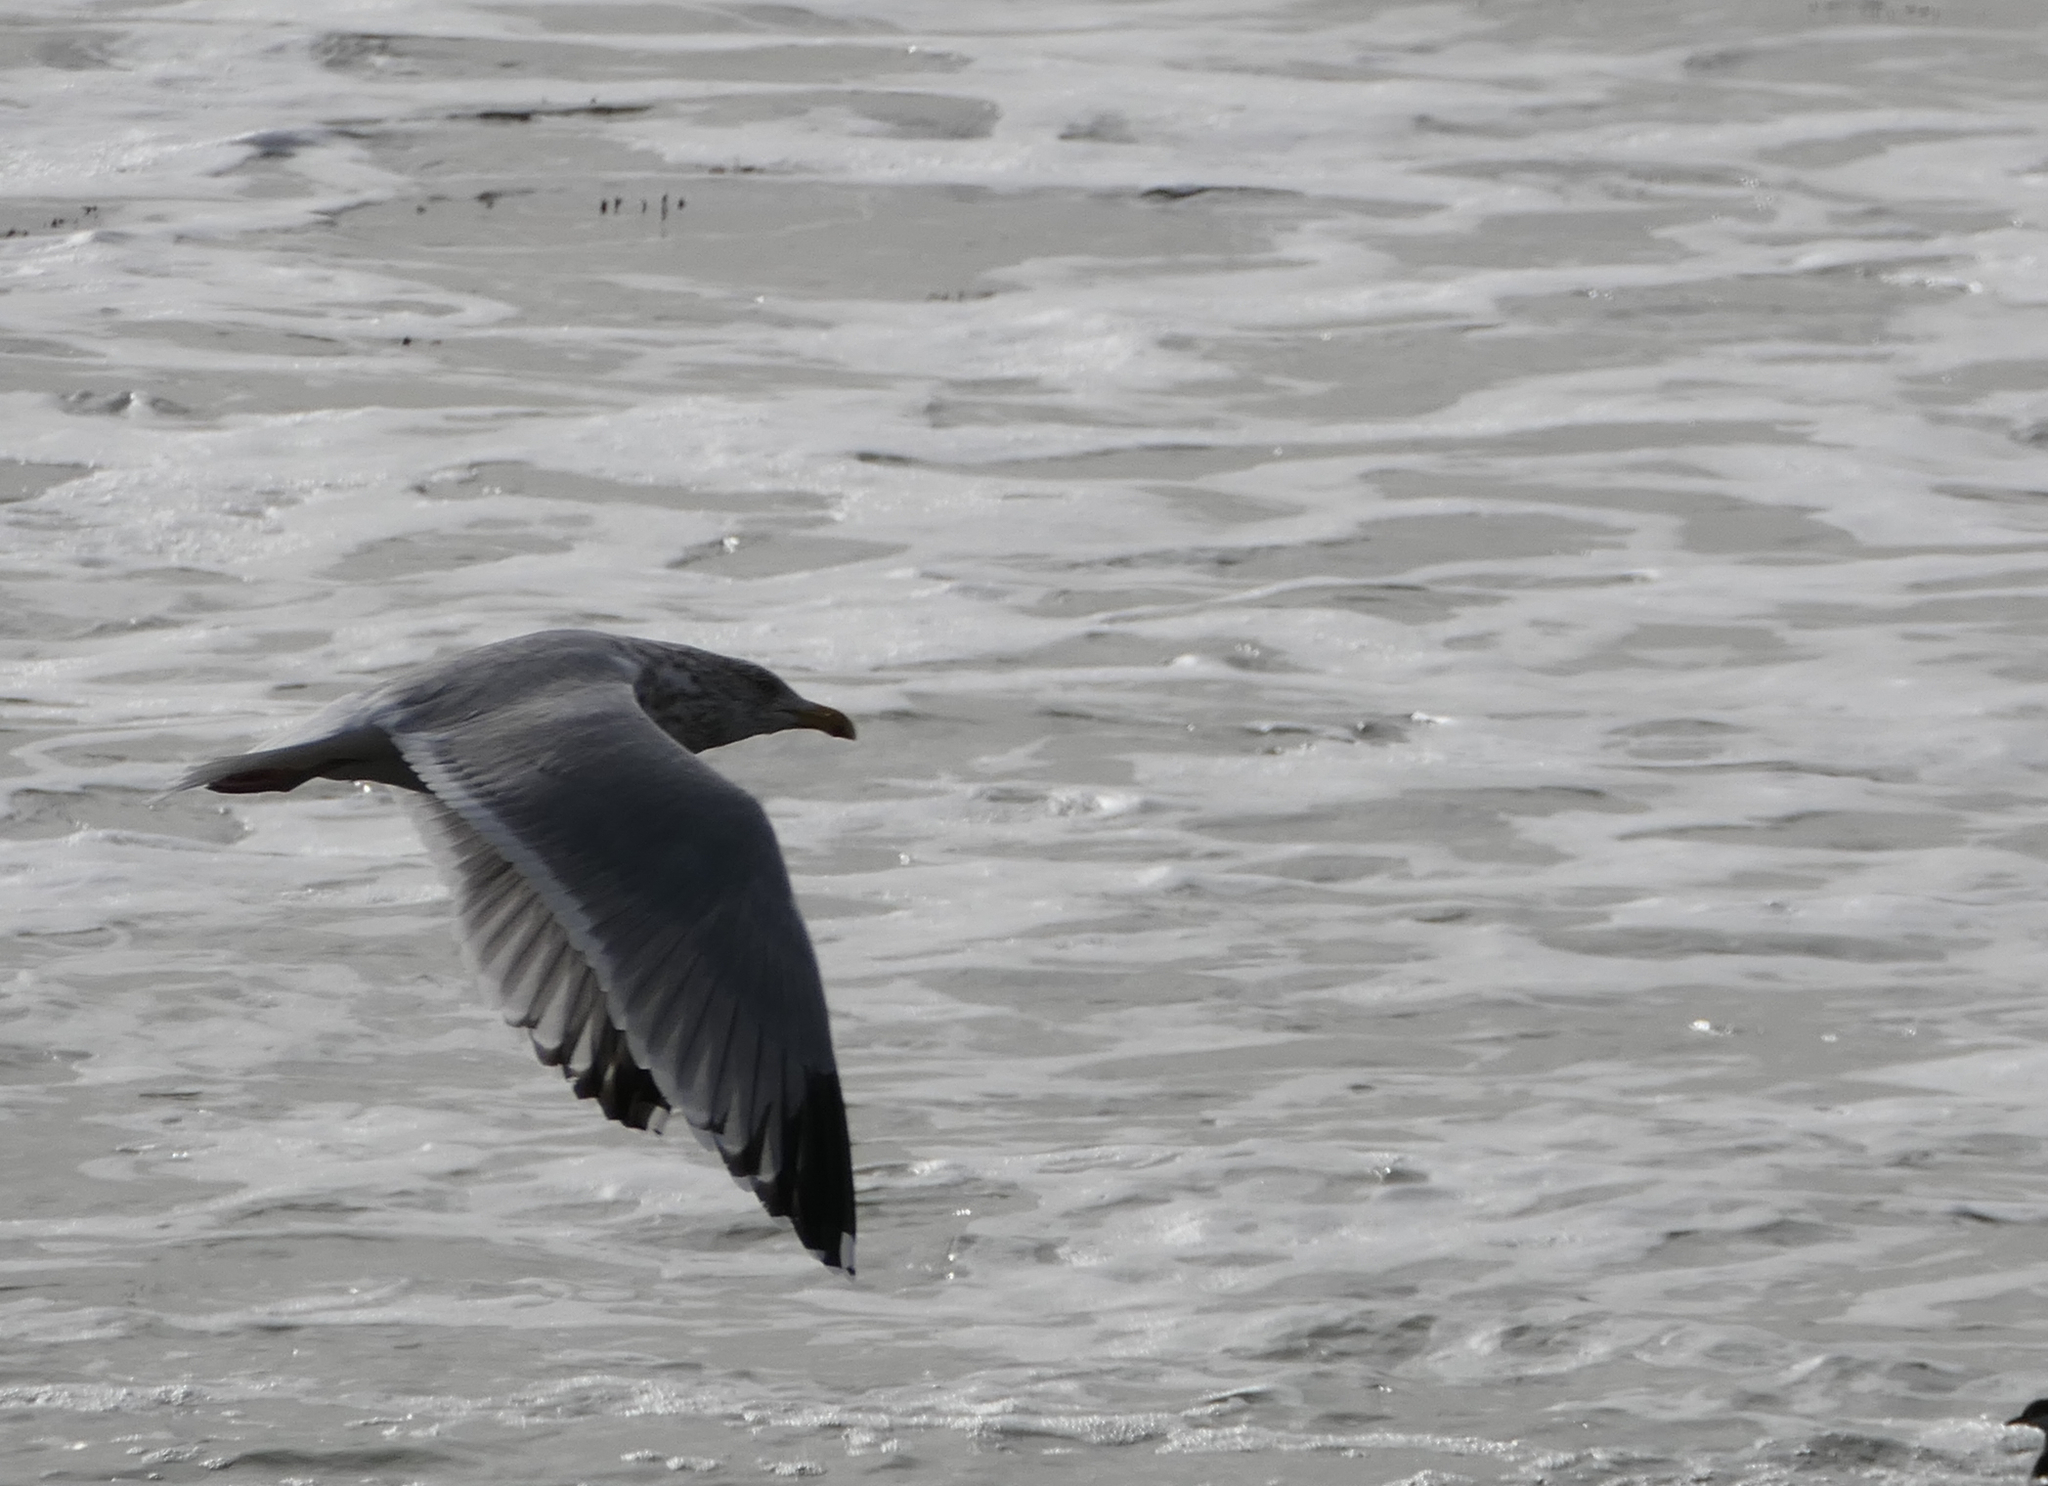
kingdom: Animalia
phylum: Chordata
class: Aves
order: Charadriiformes
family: Laridae
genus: Larus
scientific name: Larus argentatus
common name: Herring gull
